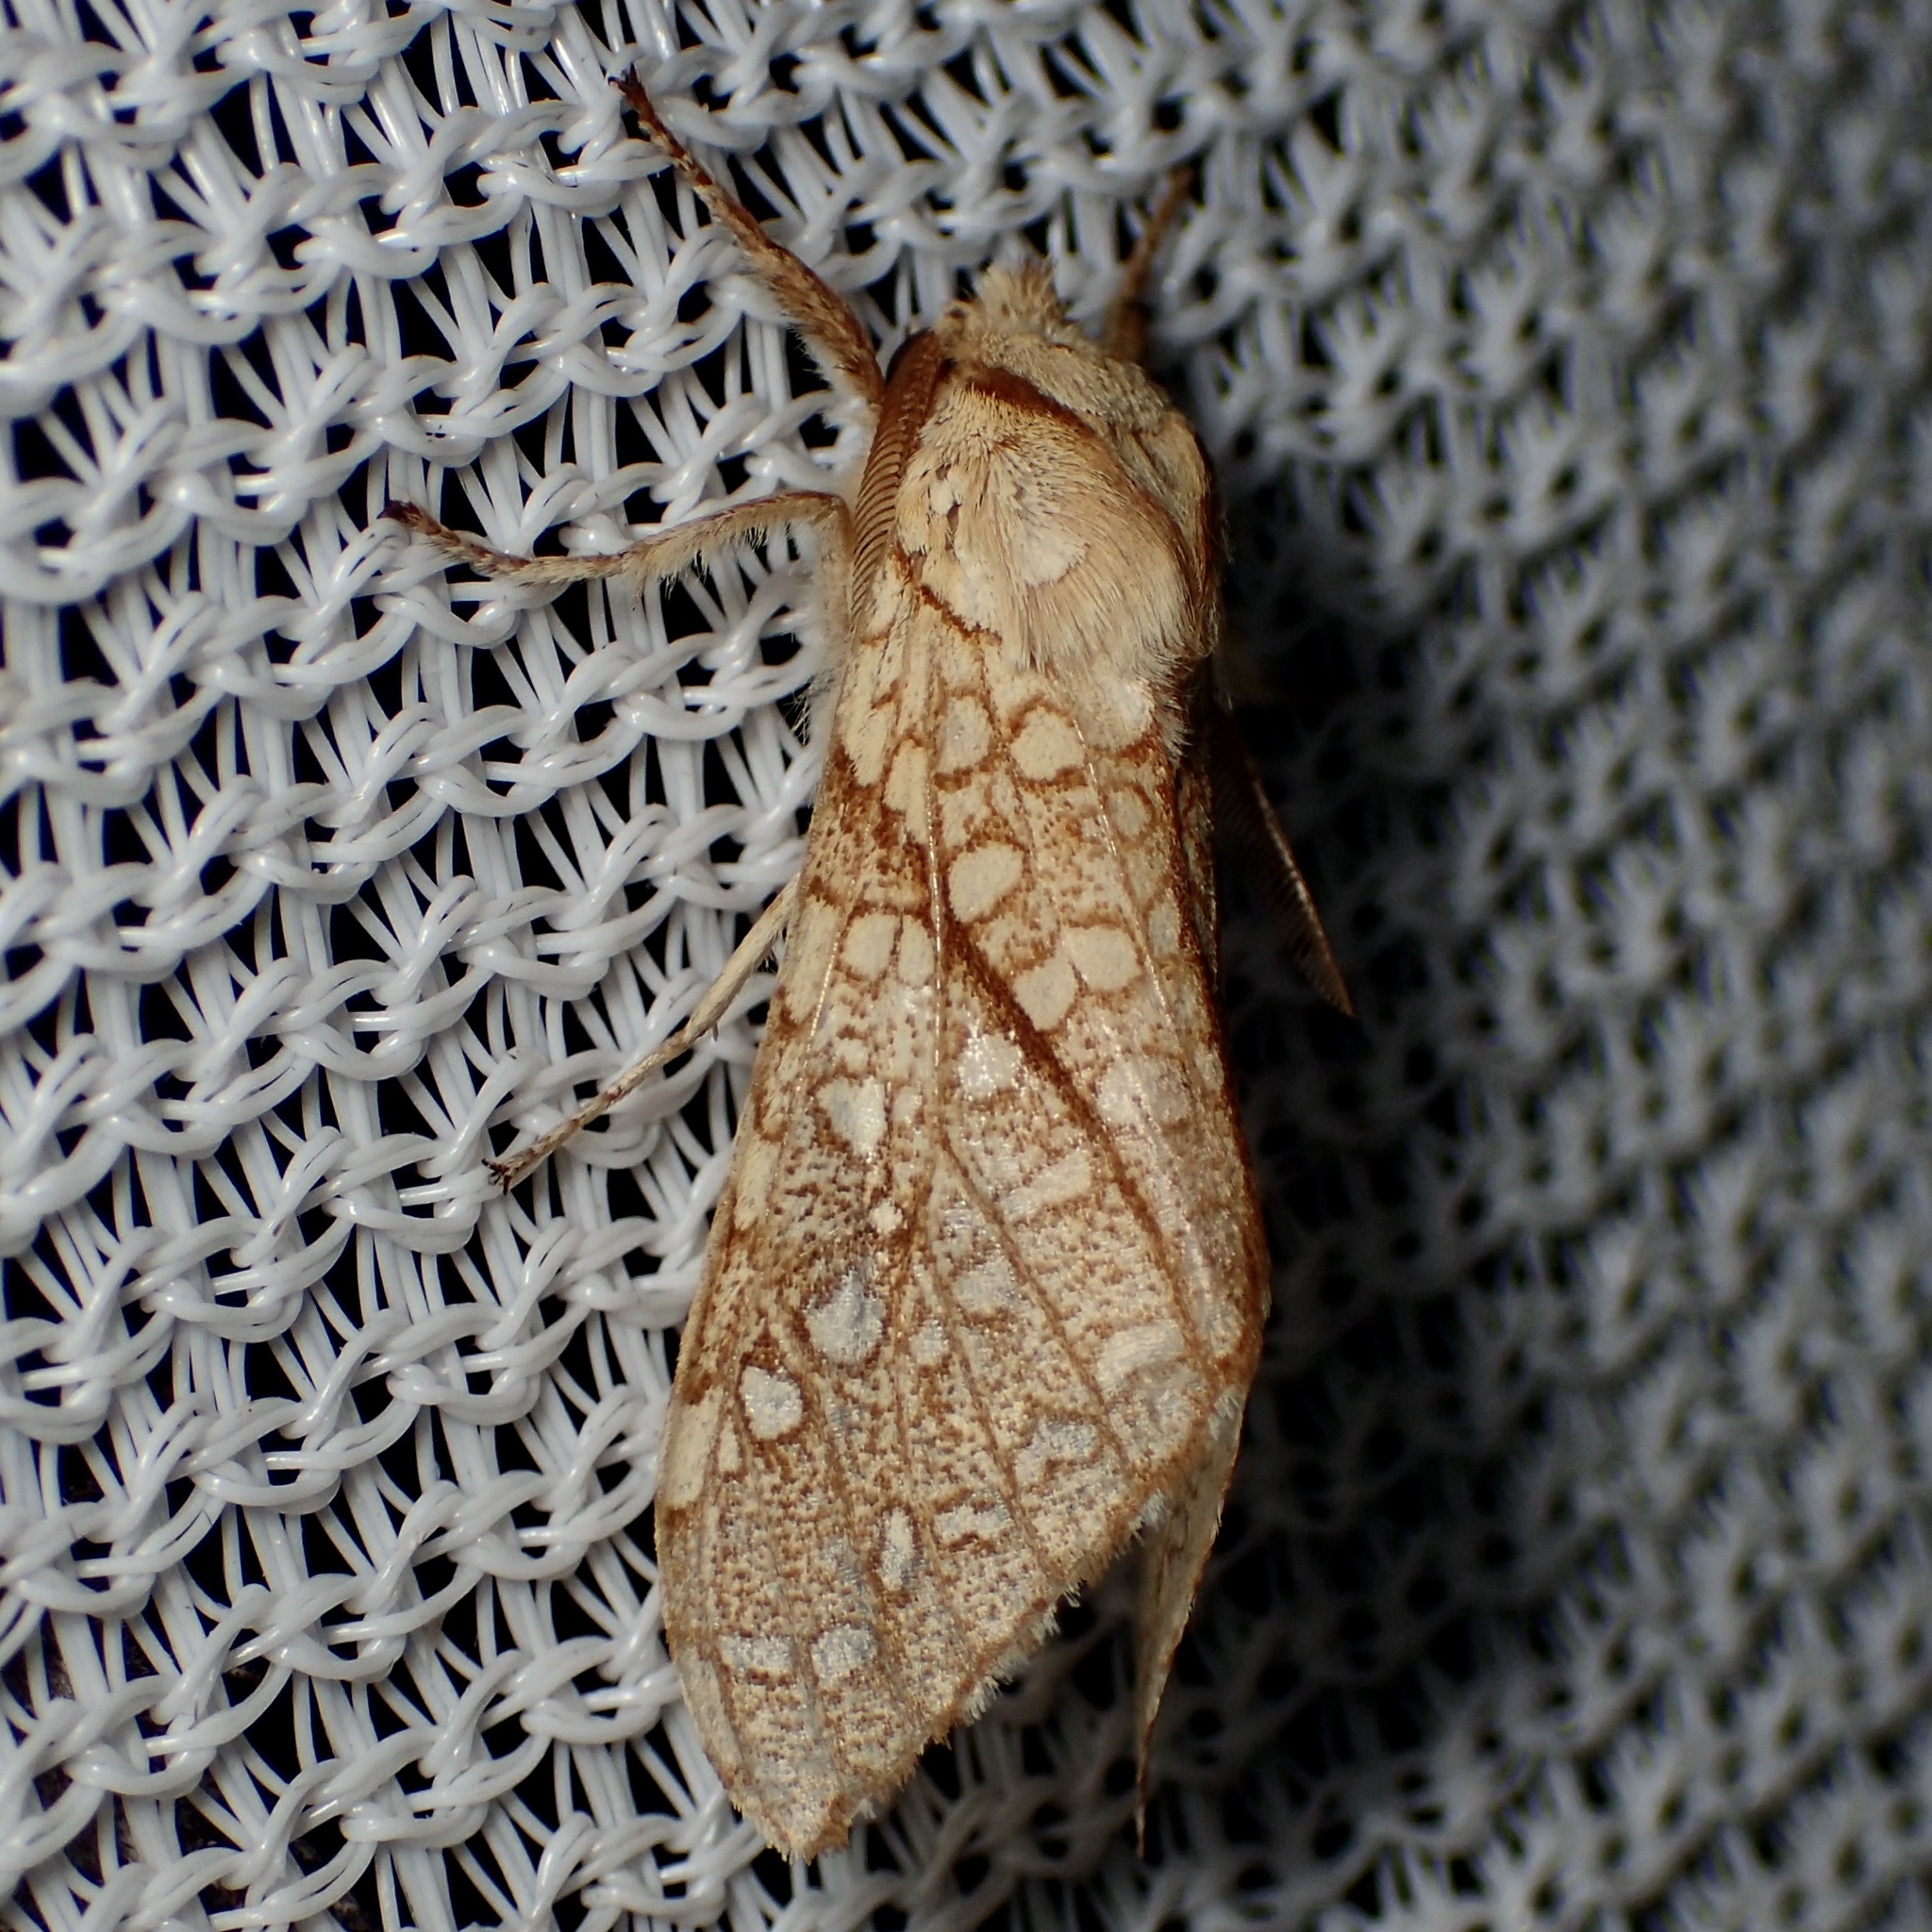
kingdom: Animalia
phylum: Arthropoda
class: Insecta
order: Lepidoptera
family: Erebidae
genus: Lophocampa
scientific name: Lophocampa mixta
